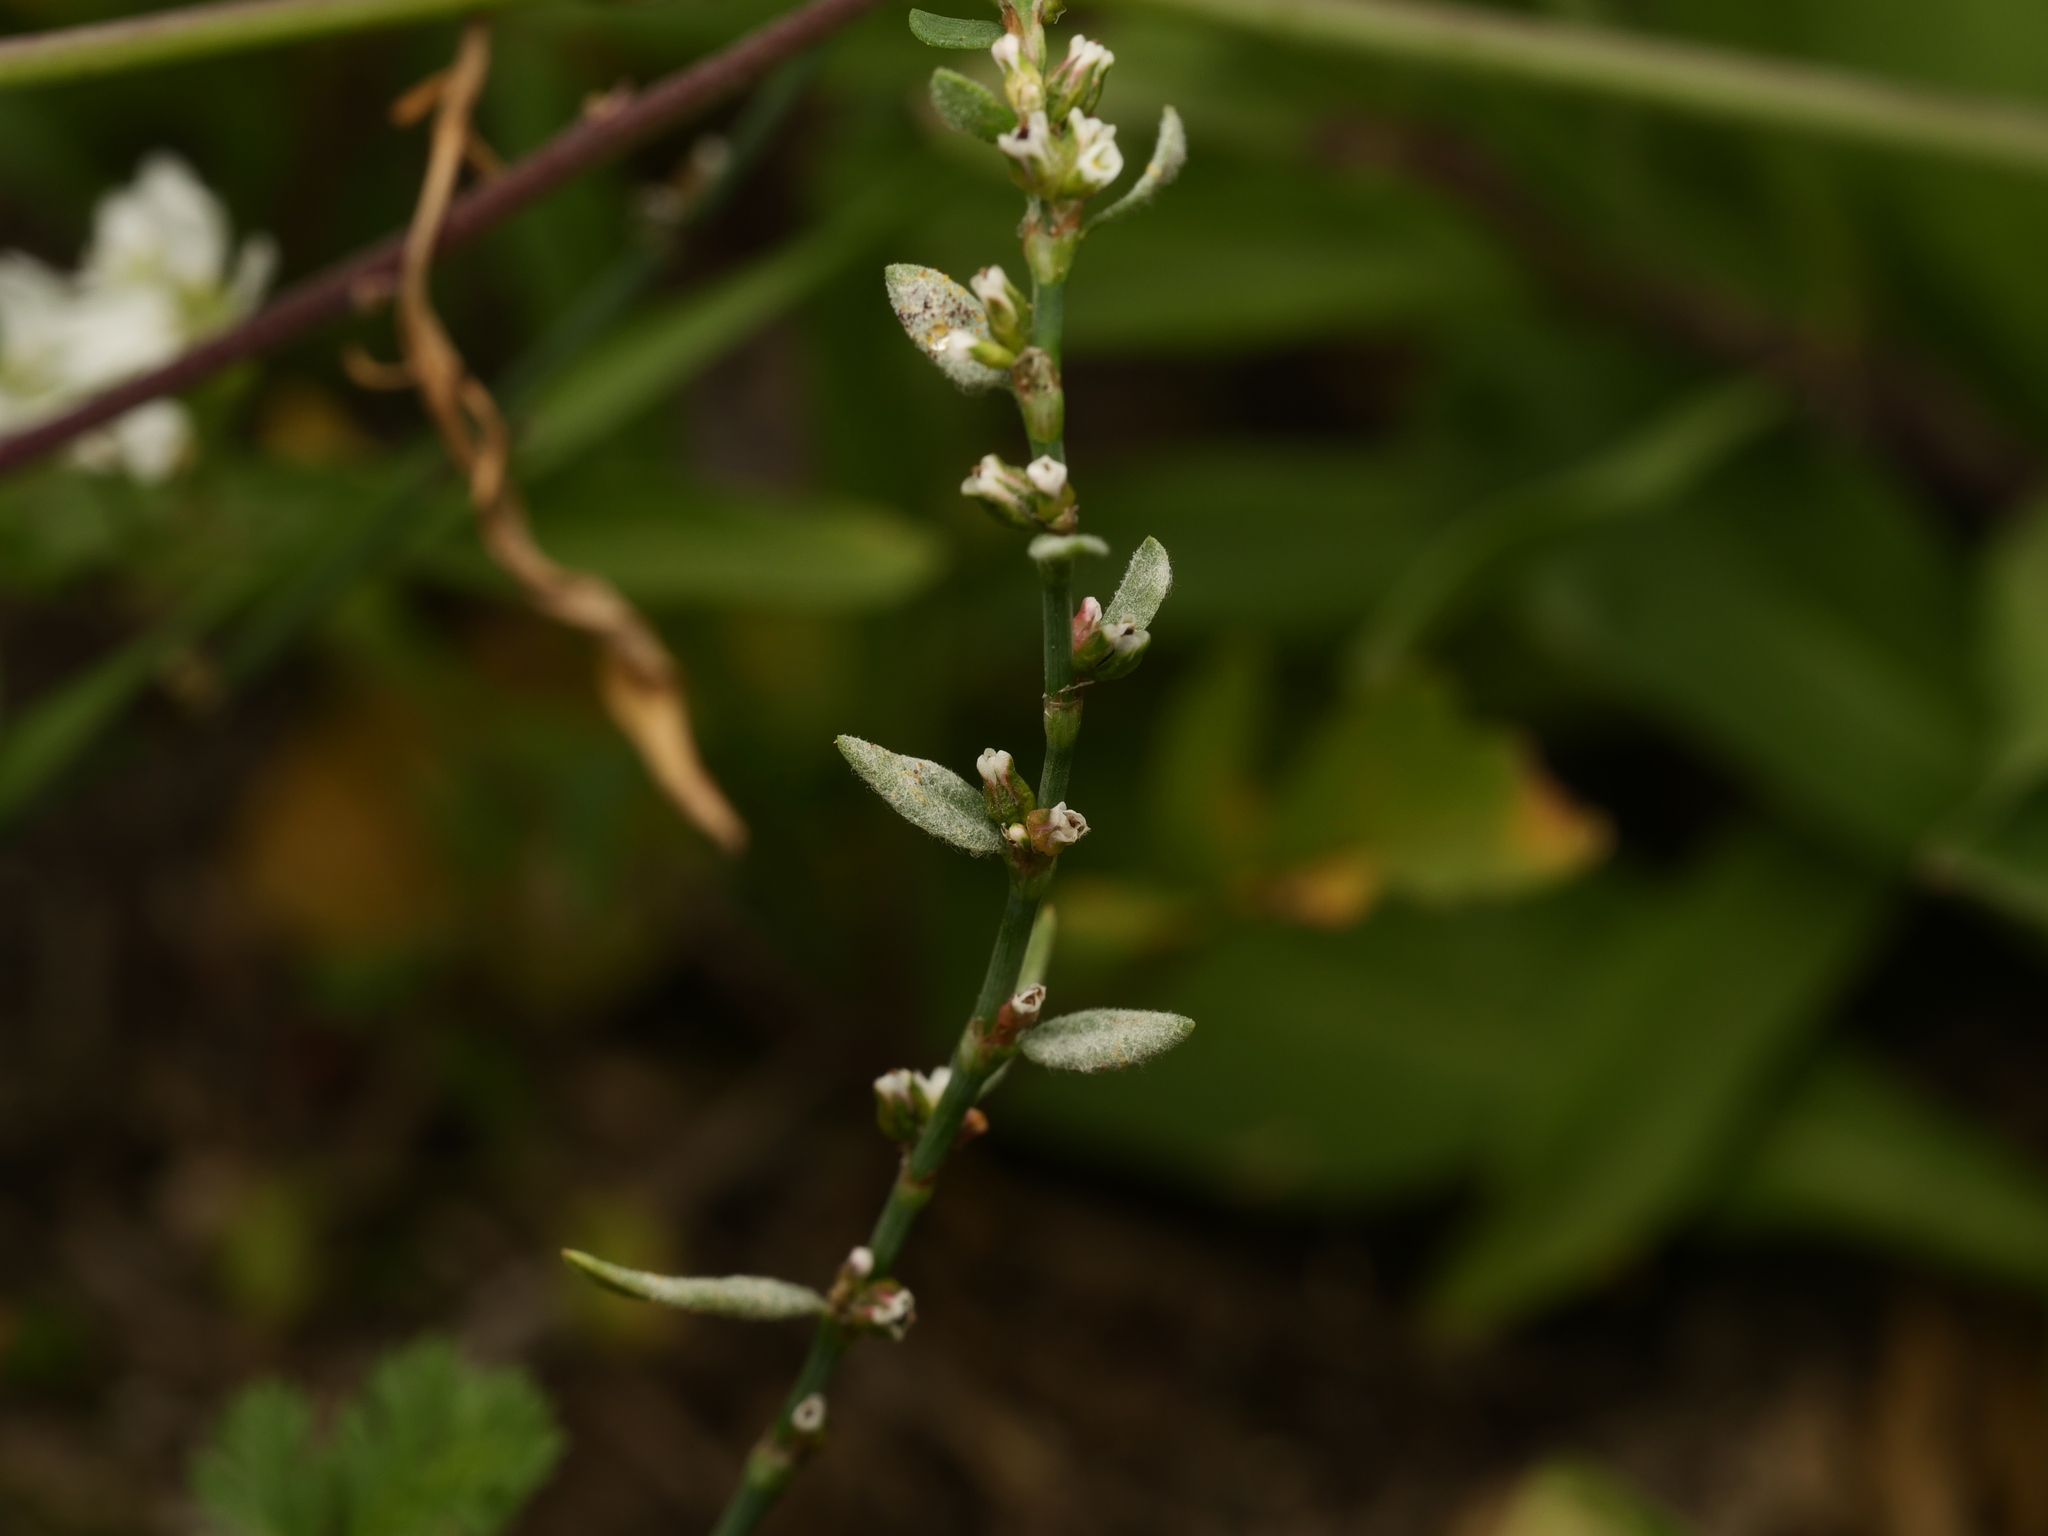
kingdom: Plantae
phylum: Tracheophyta
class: Magnoliopsida
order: Caryophyllales
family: Polygonaceae
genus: Polygonum
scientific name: Polygonum aviculare
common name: Prostrate knotweed
